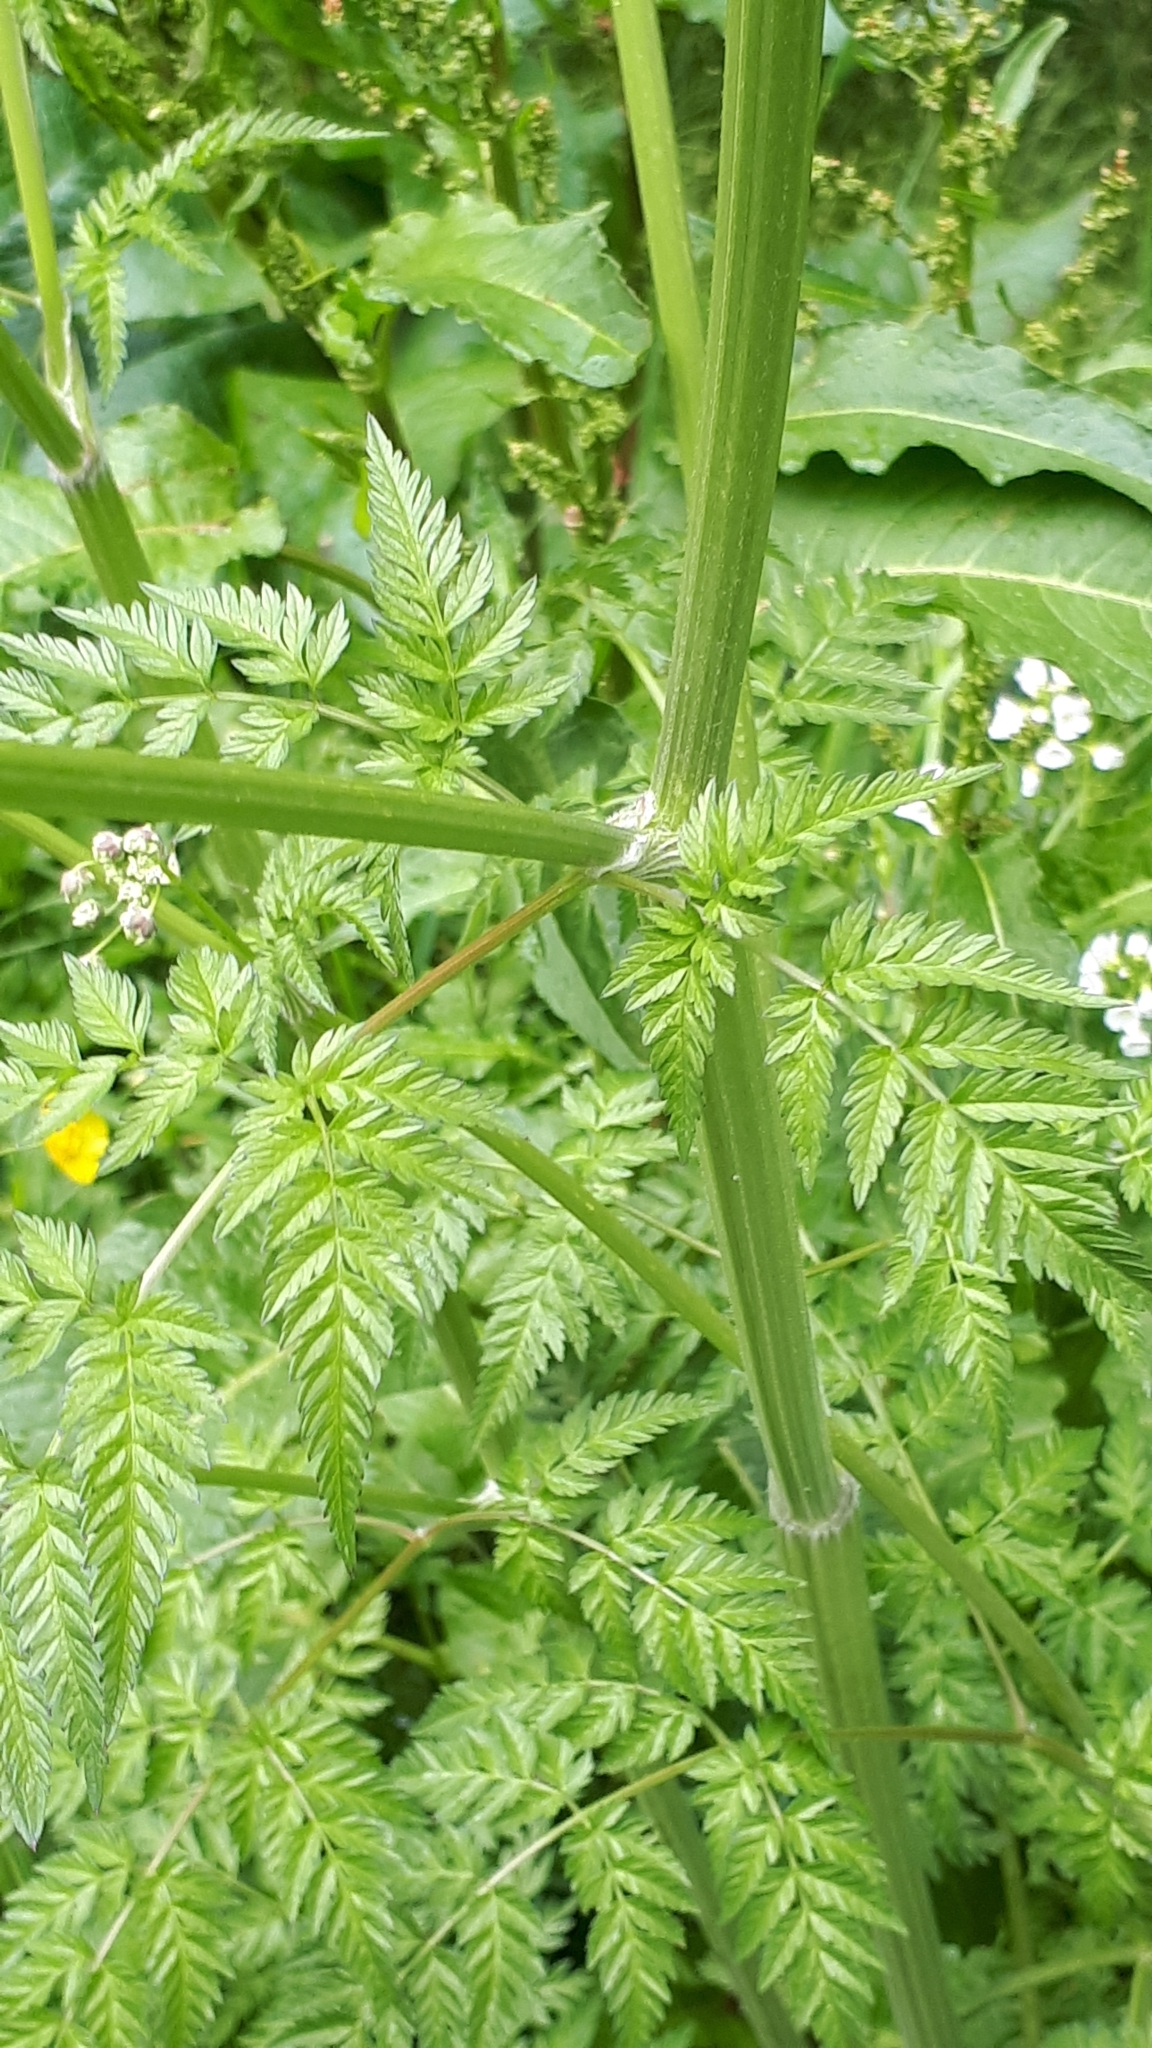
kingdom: Plantae
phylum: Tracheophyta
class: Magnoliopsida
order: Apiales
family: Apiaceae
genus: Anthriscus
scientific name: Anthriscus sylvestris
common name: Cow parsley
